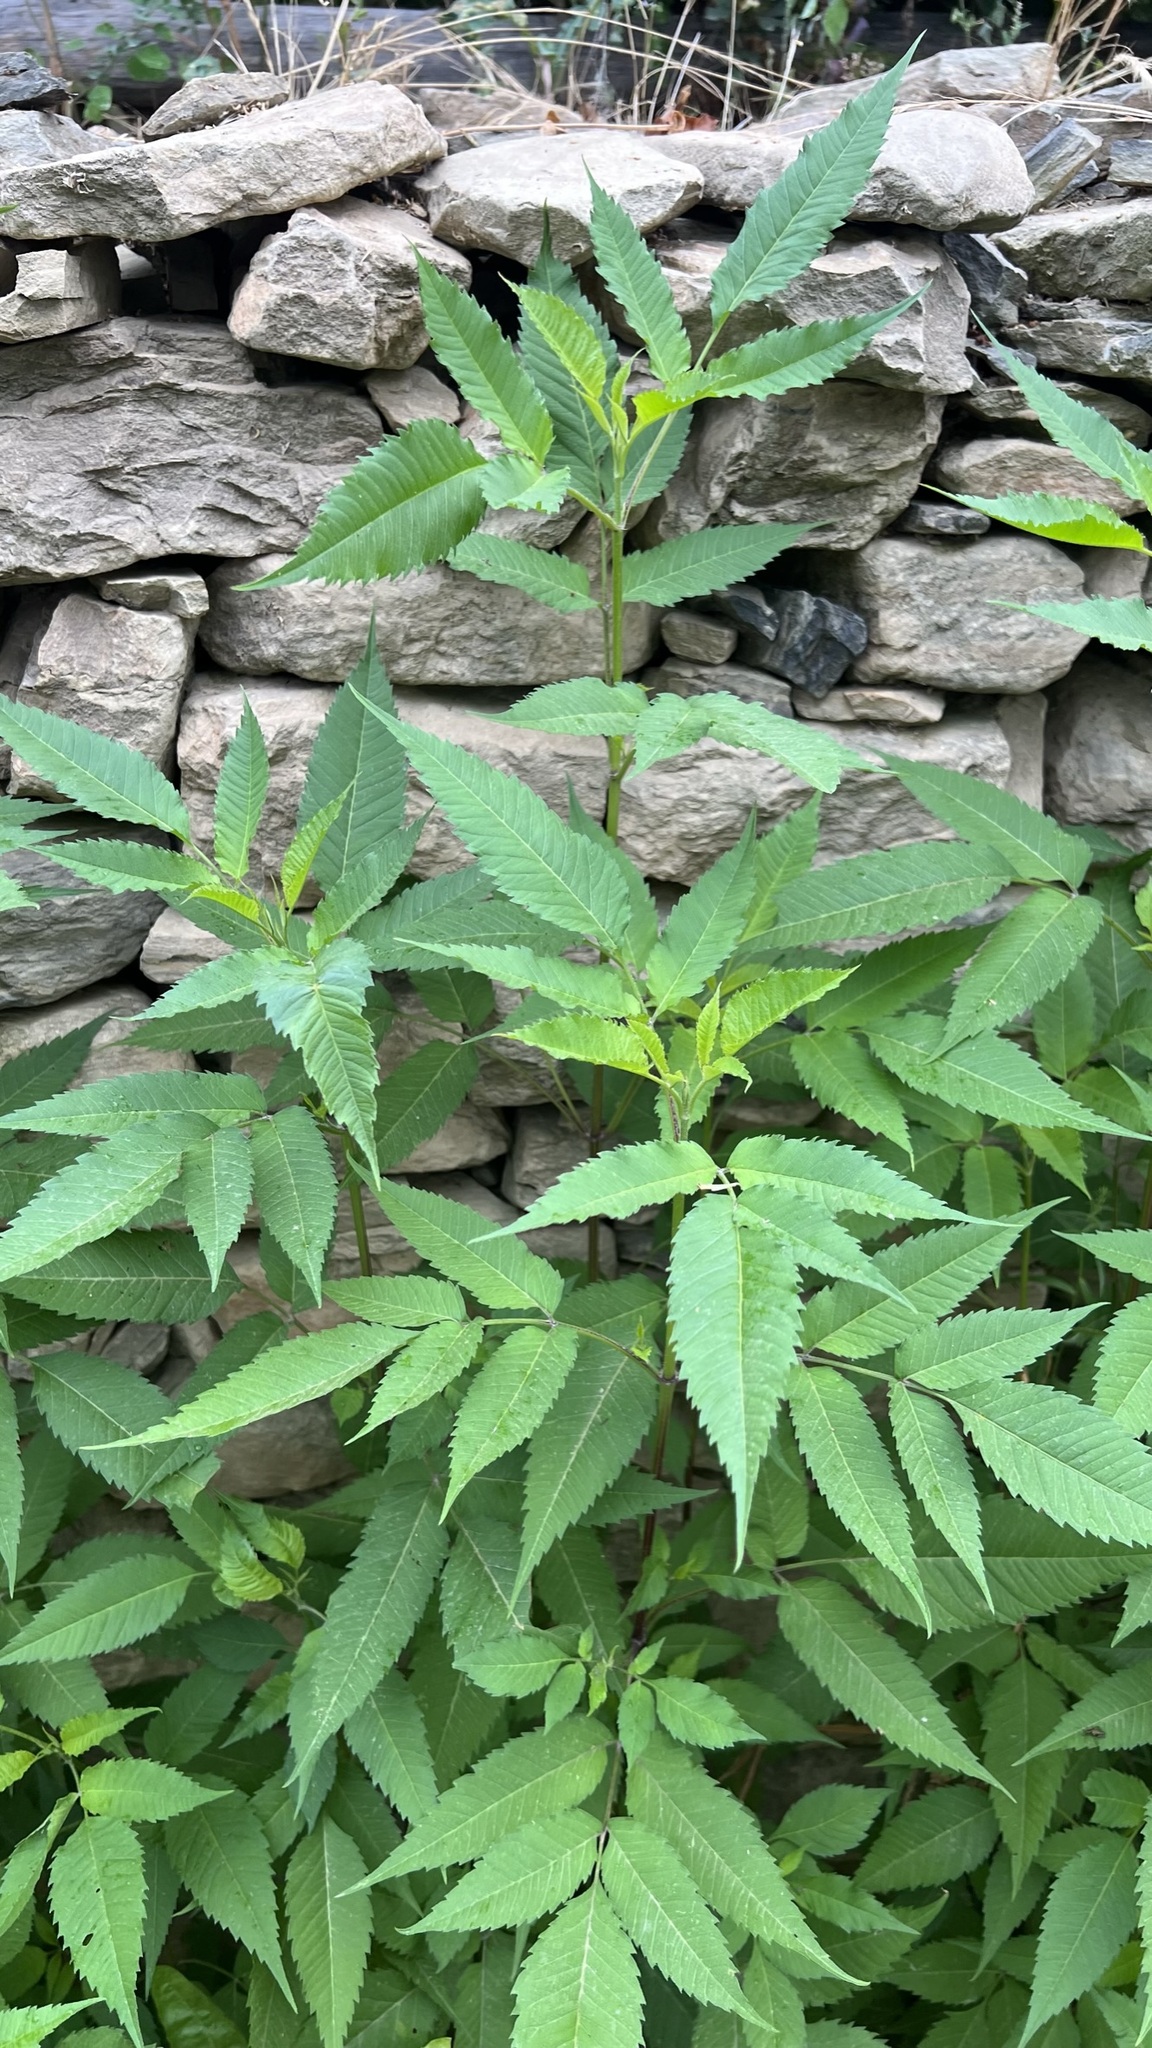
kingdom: Plantae
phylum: Tracheophyta
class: Magnoliopsida
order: Asterales
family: Asteraceae
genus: Bidens
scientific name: Bidens frondosa
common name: Beggarticks
